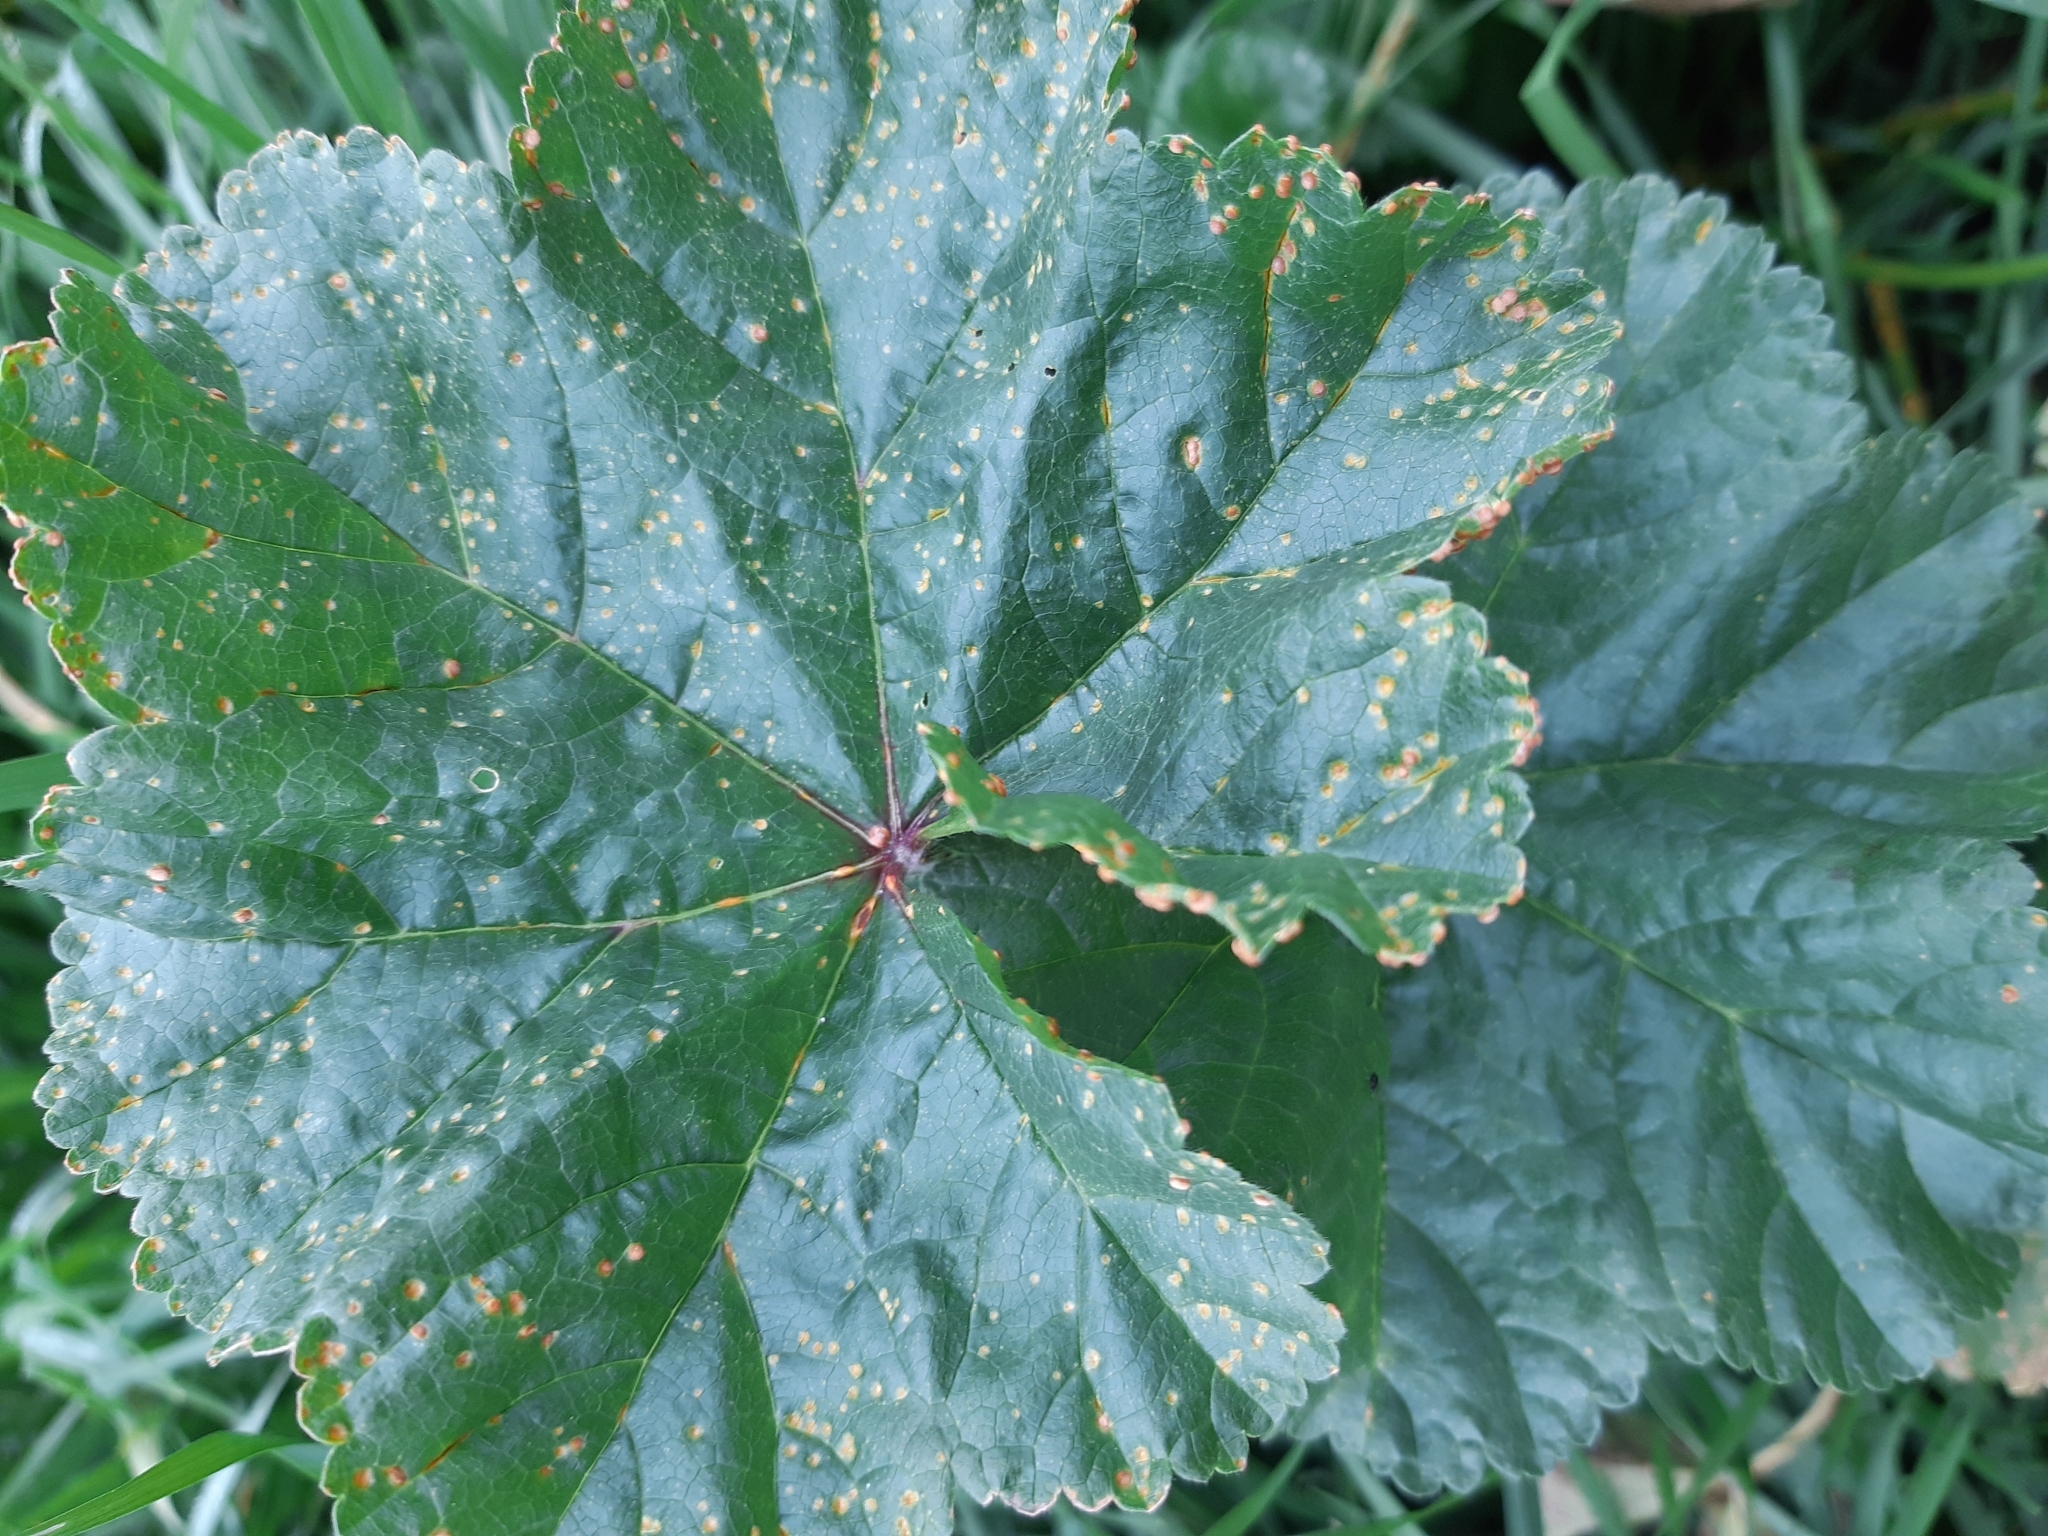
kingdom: Fungi
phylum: Basidiomycota
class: Pucciniomycetes
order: Pucciniales
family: Pucciniaceae
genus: Puccinia
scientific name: Puccinia malvacearum
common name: Hollyhock rust
